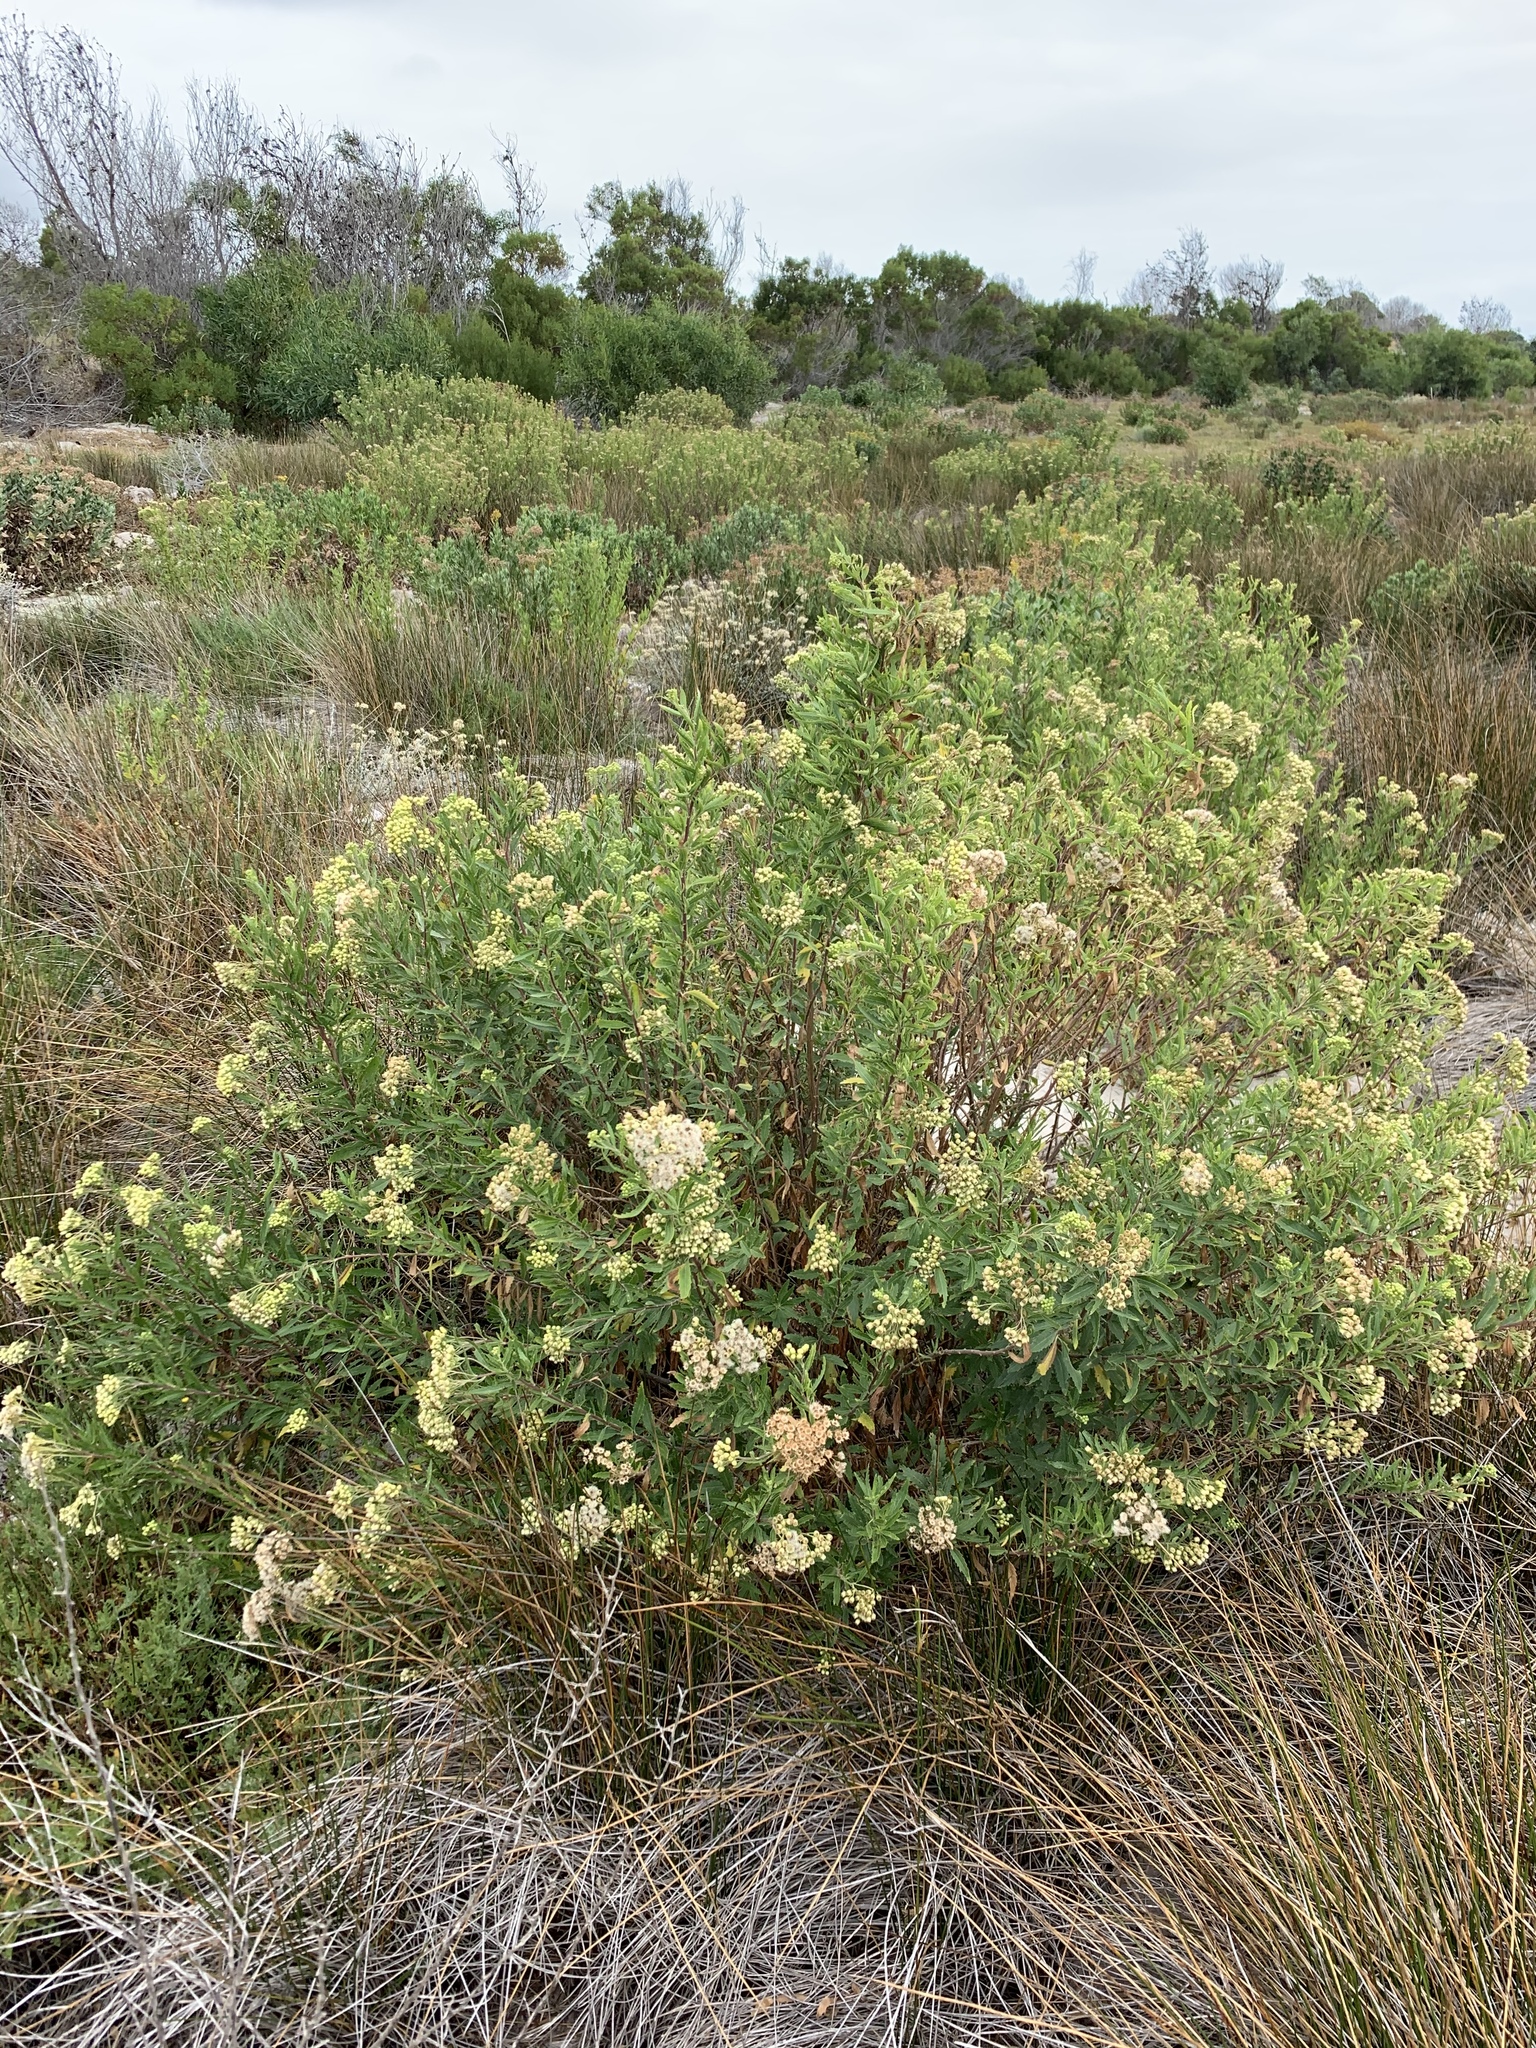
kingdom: Plantae
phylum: Tracheophyta
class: Magnoliopsida
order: Asterales
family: Asteraceae
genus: Nidorella
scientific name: Nidorella ivifolia
